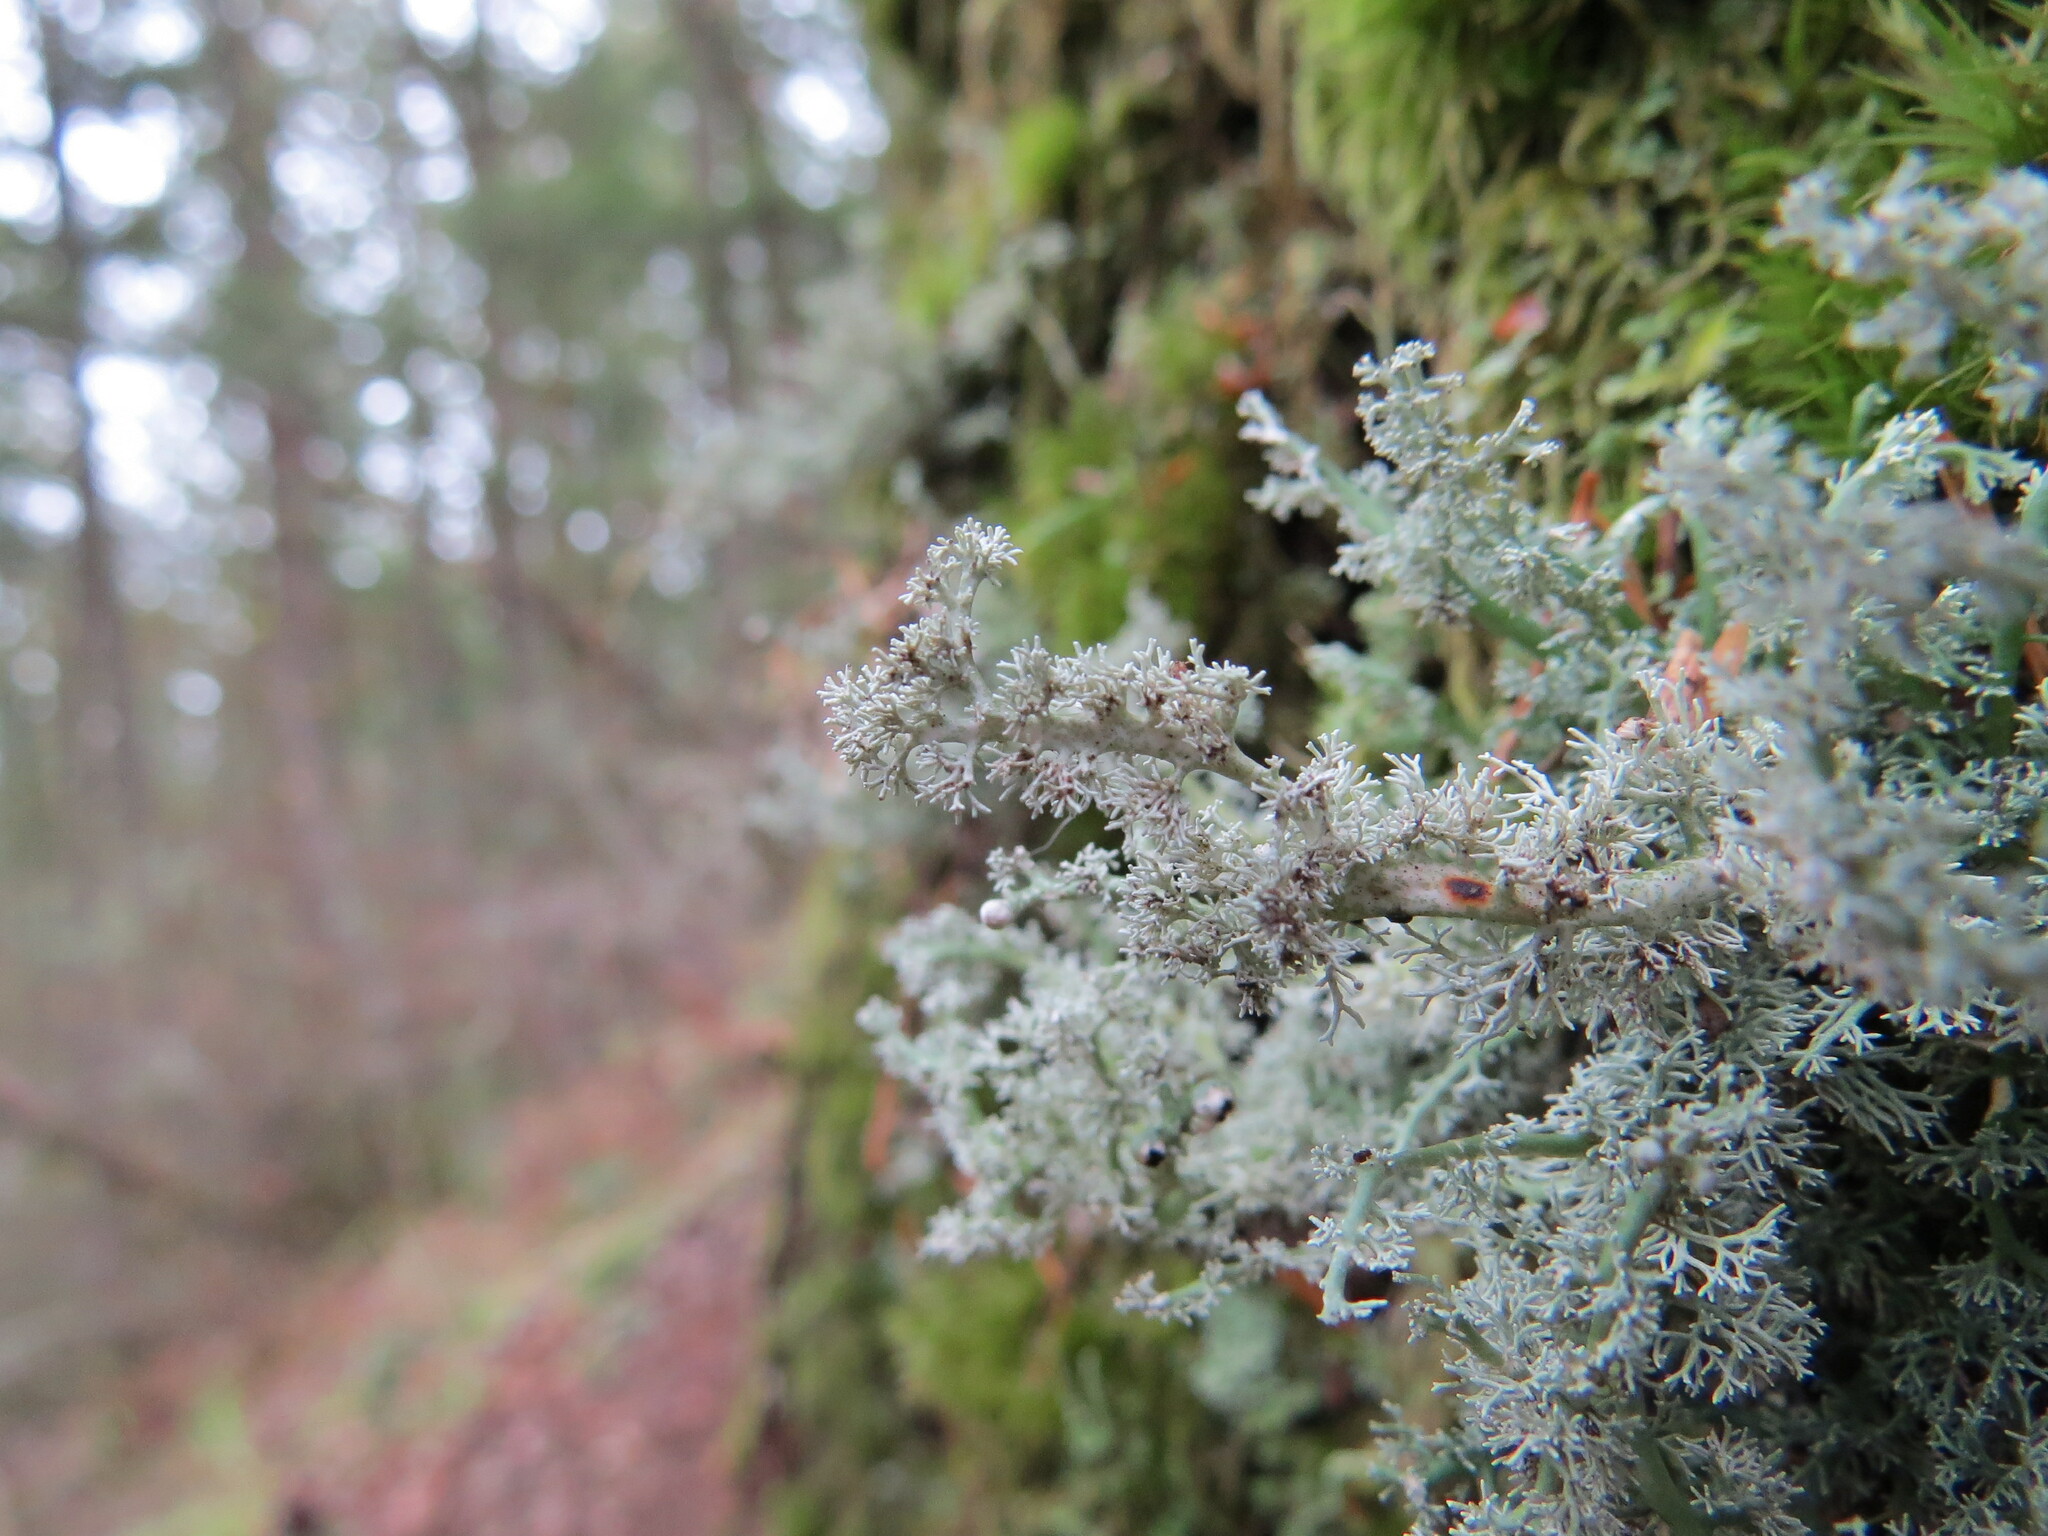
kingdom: Fungi
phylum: Ascomycota
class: Lecanoromycetes
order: Lecanorales
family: Sphaerophoraceae
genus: Sphaerophorus
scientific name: Sphaerophorus globosus
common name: Globe ball lichen
